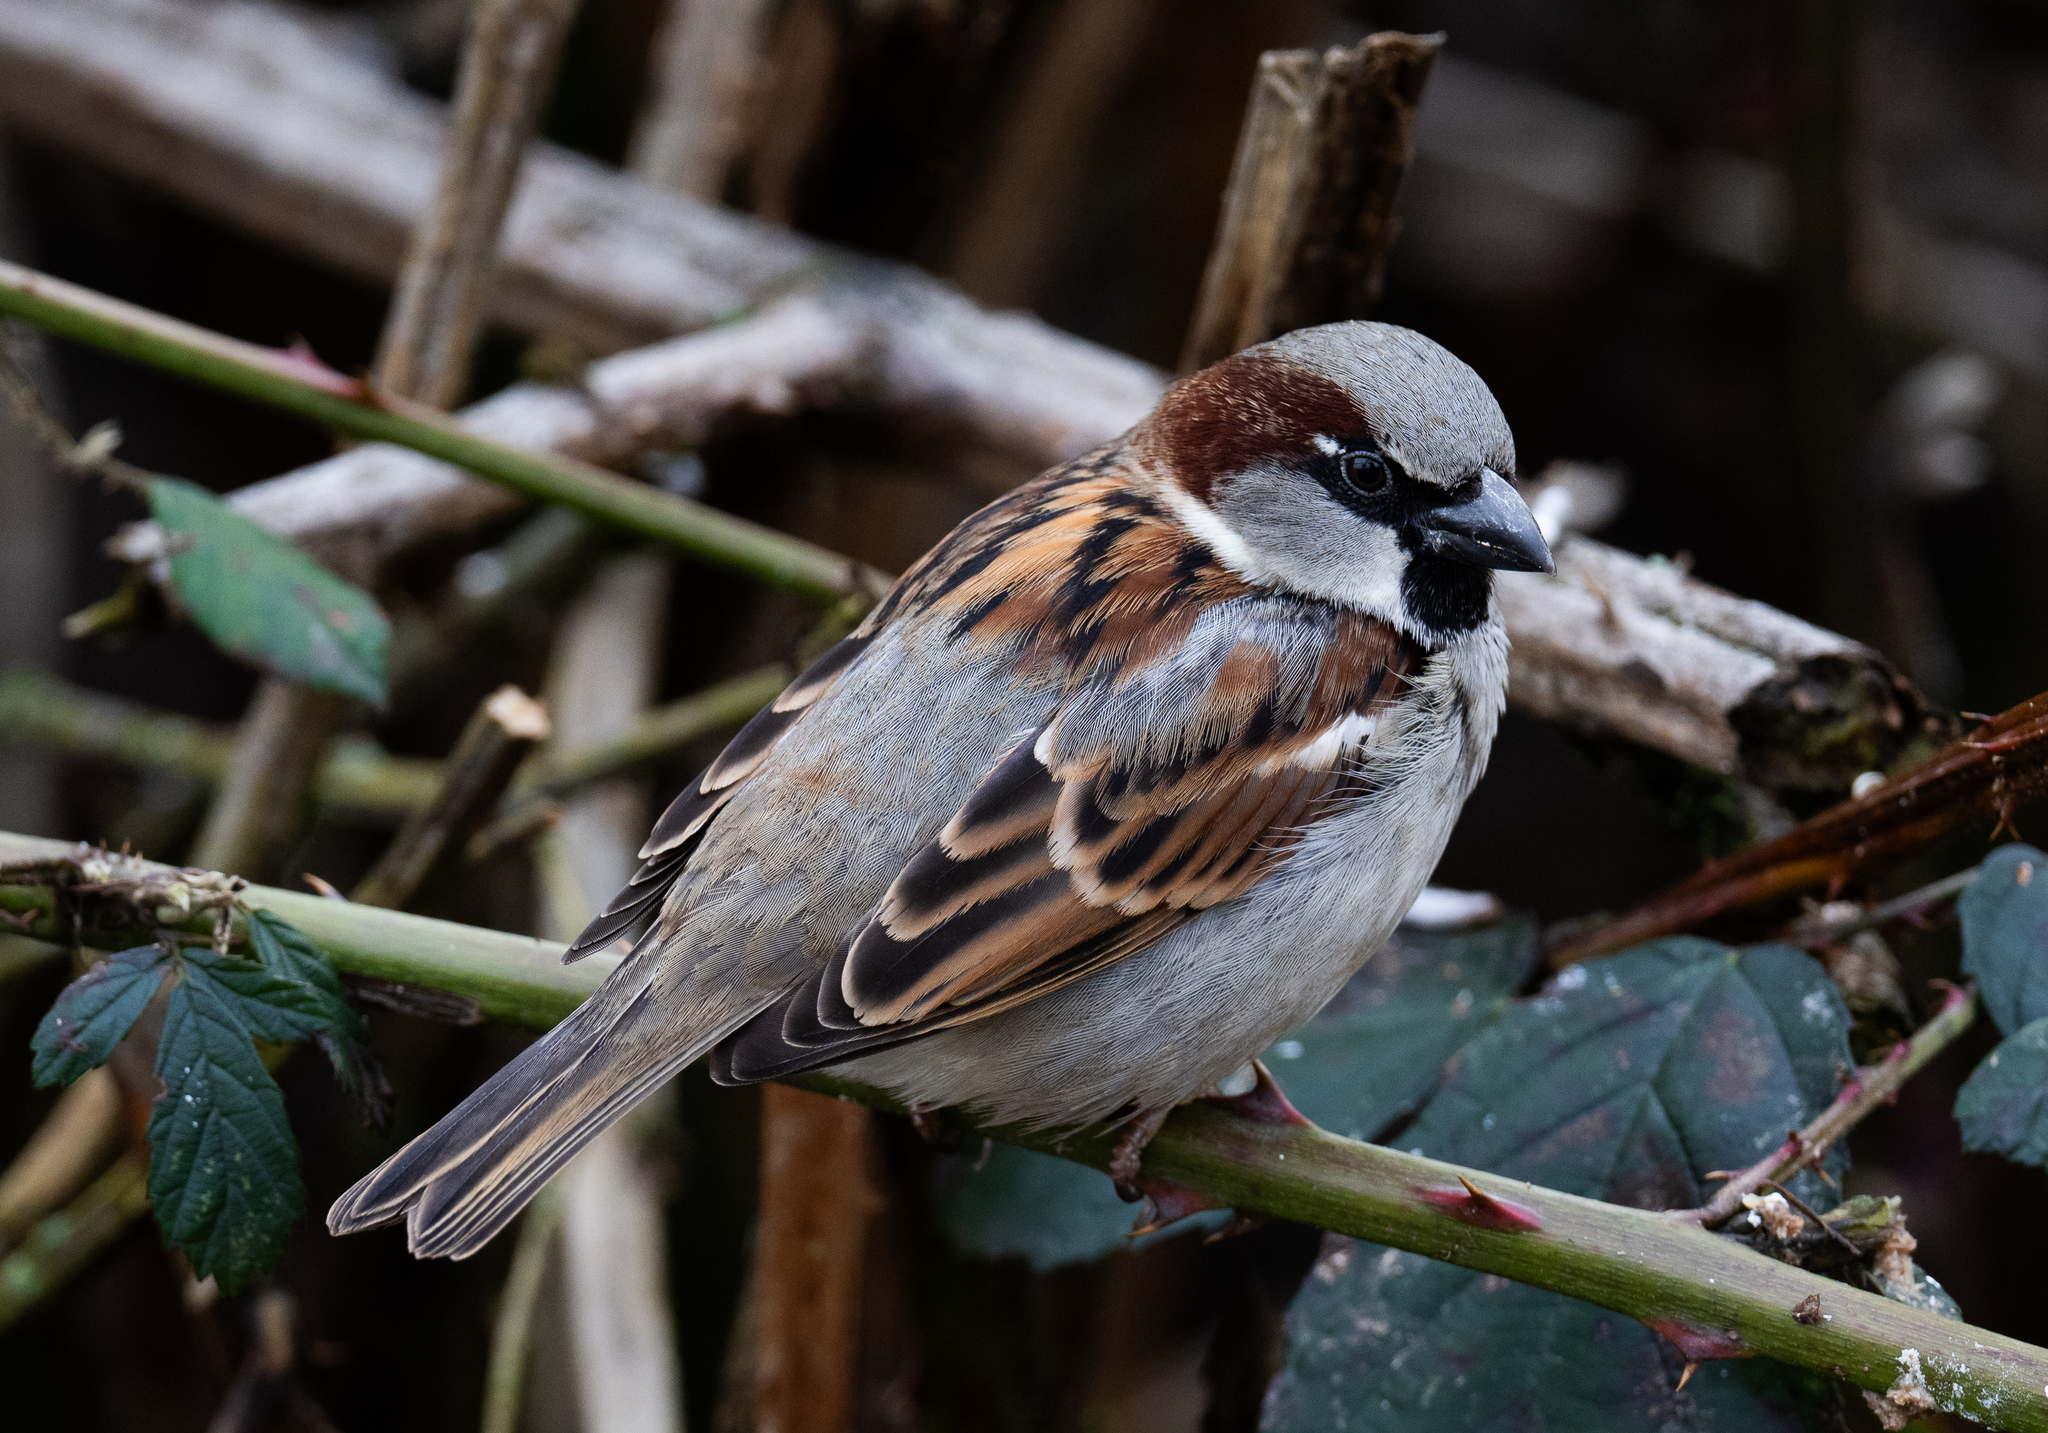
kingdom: Animalia
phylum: Chordata
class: Aves
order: Passeriformes
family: Passeridae
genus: Passer
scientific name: Passer domesticus
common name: House sparrow
